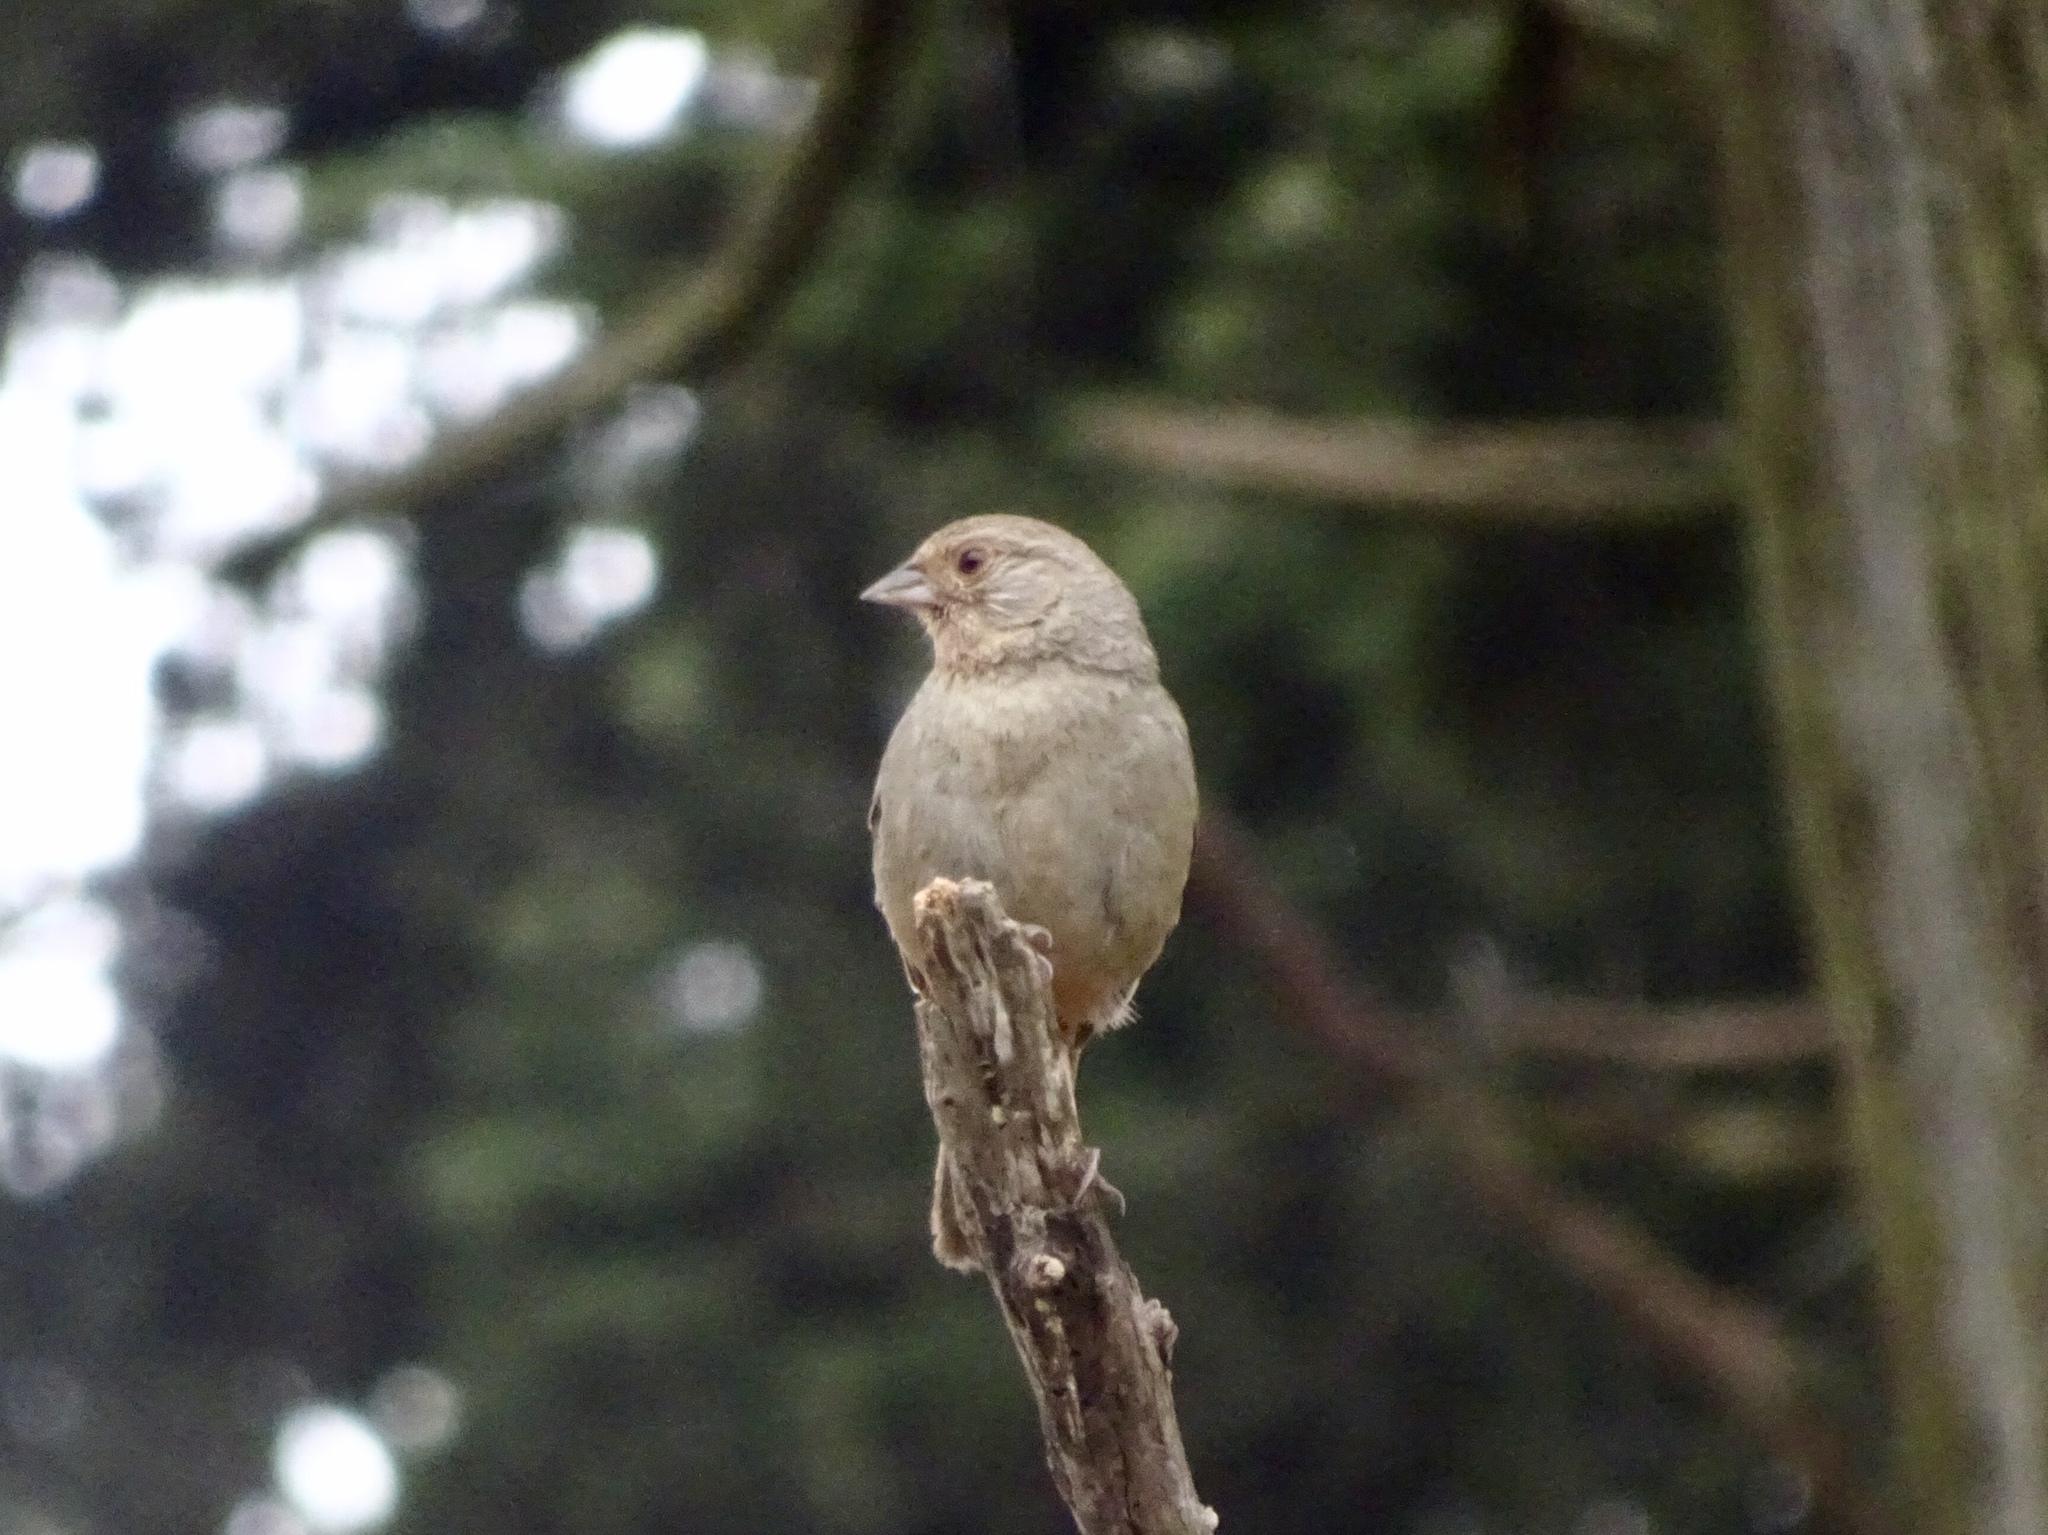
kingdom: Animalia
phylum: Chordata
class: Aves
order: Passeriformes
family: Passerellidae
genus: Melozone
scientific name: Melozone crissalis
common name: California towhee
